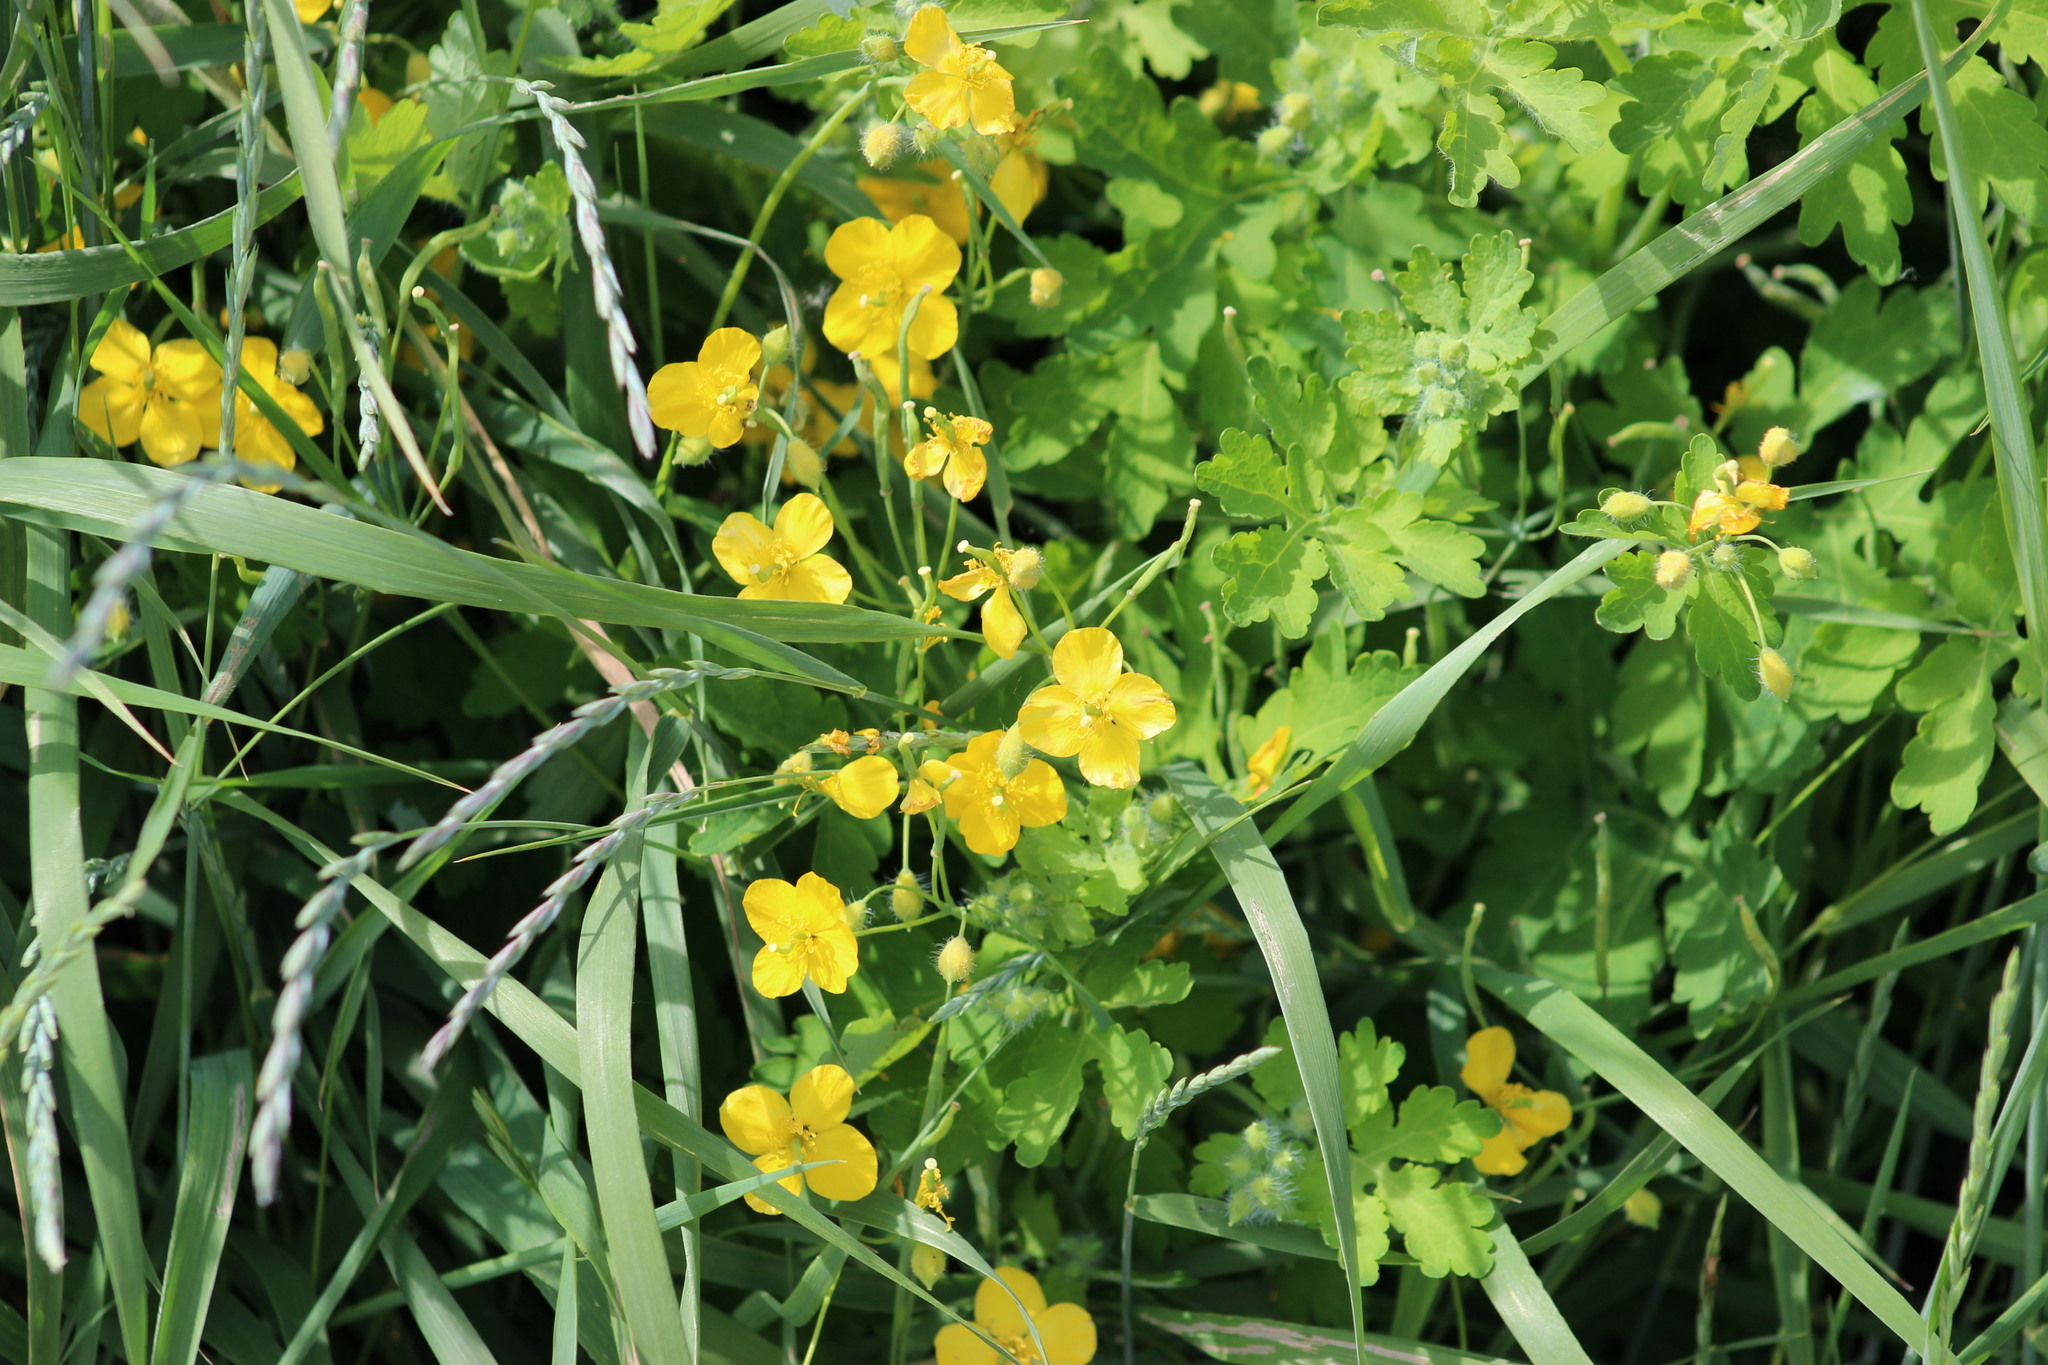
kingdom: Plantae
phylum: Tracheophyta
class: Magnoliopsida
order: Ranunculales
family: Papaveraceae
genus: Chelidonium
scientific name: Chelidonium majus
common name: Greater celandine
